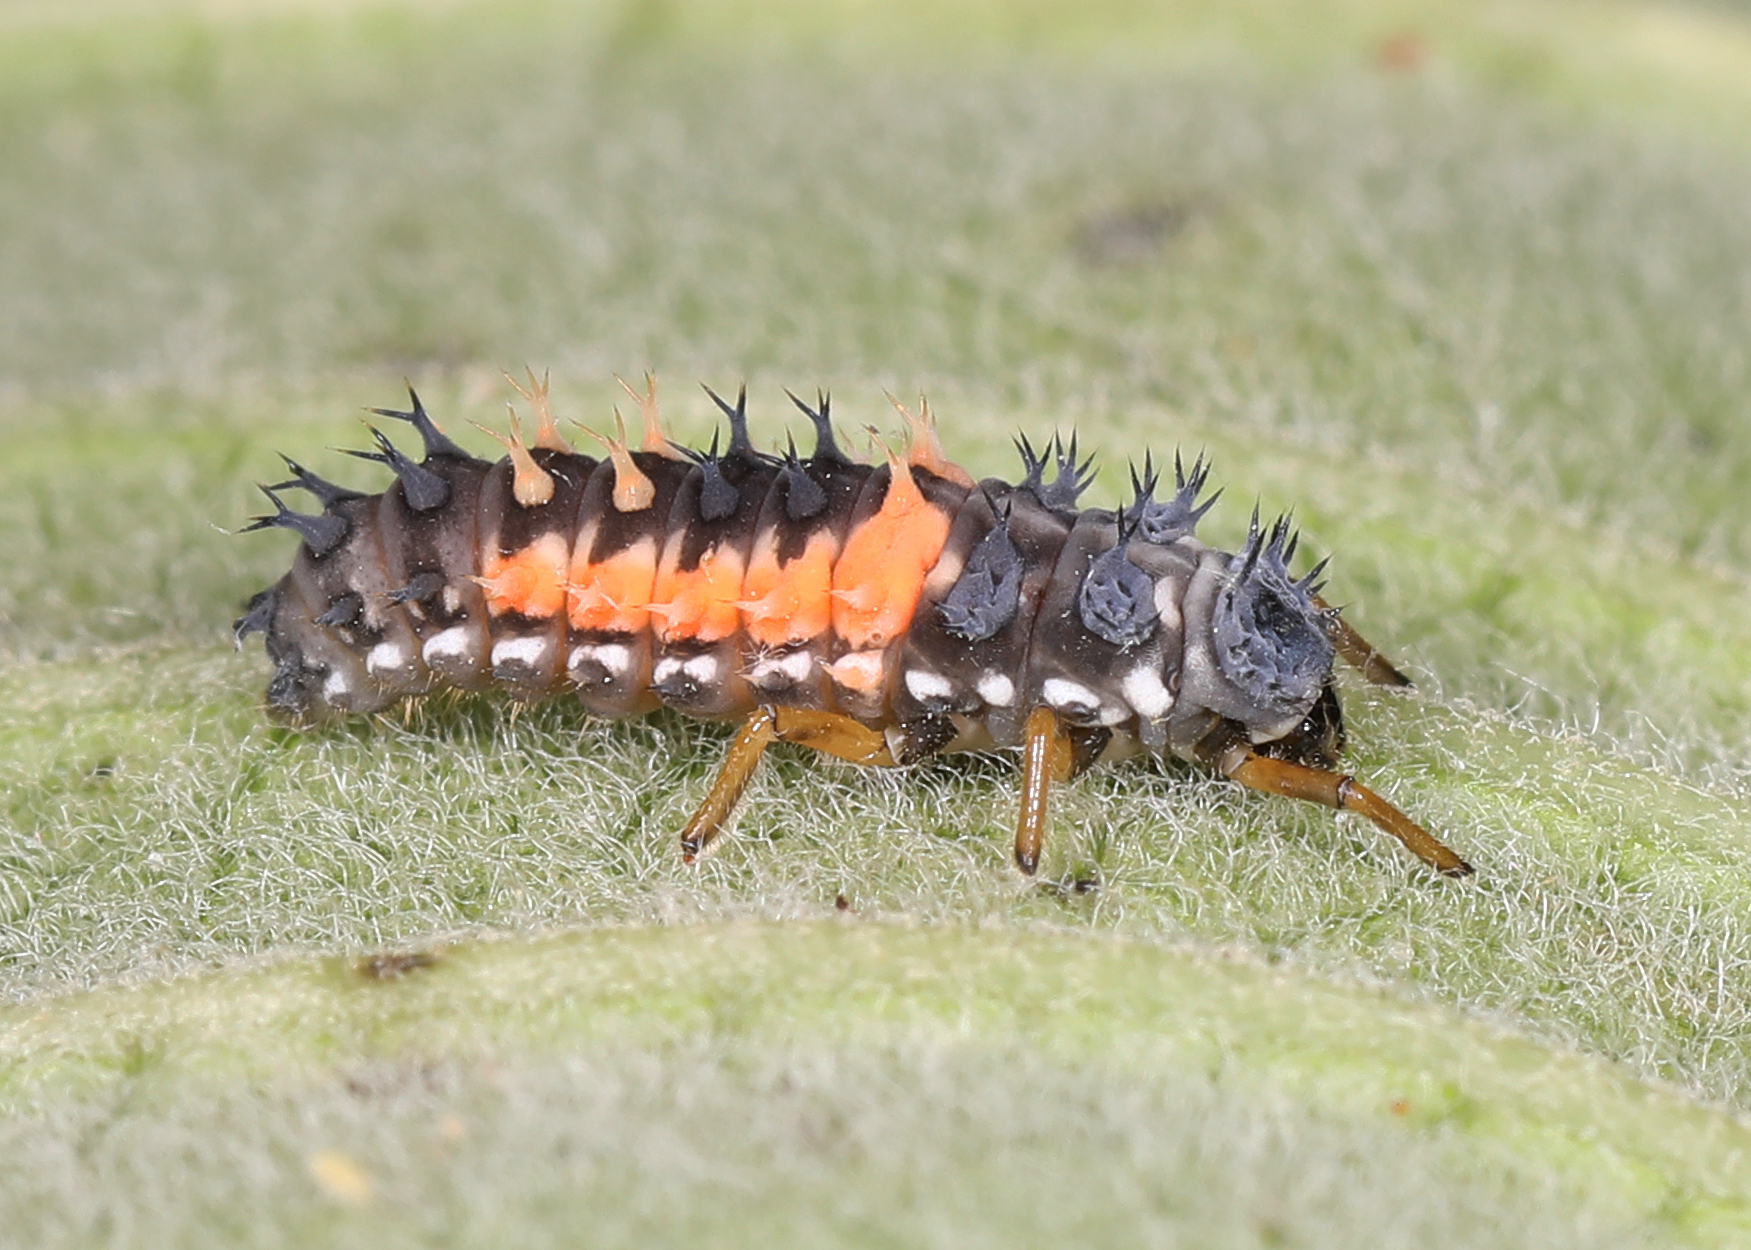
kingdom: Animalia
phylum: Arthropoda
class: Insecta
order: Coleoptera
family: Coccinellidae
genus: Harmonia
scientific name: Harmonia axyridis
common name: Harlequin ladybird
